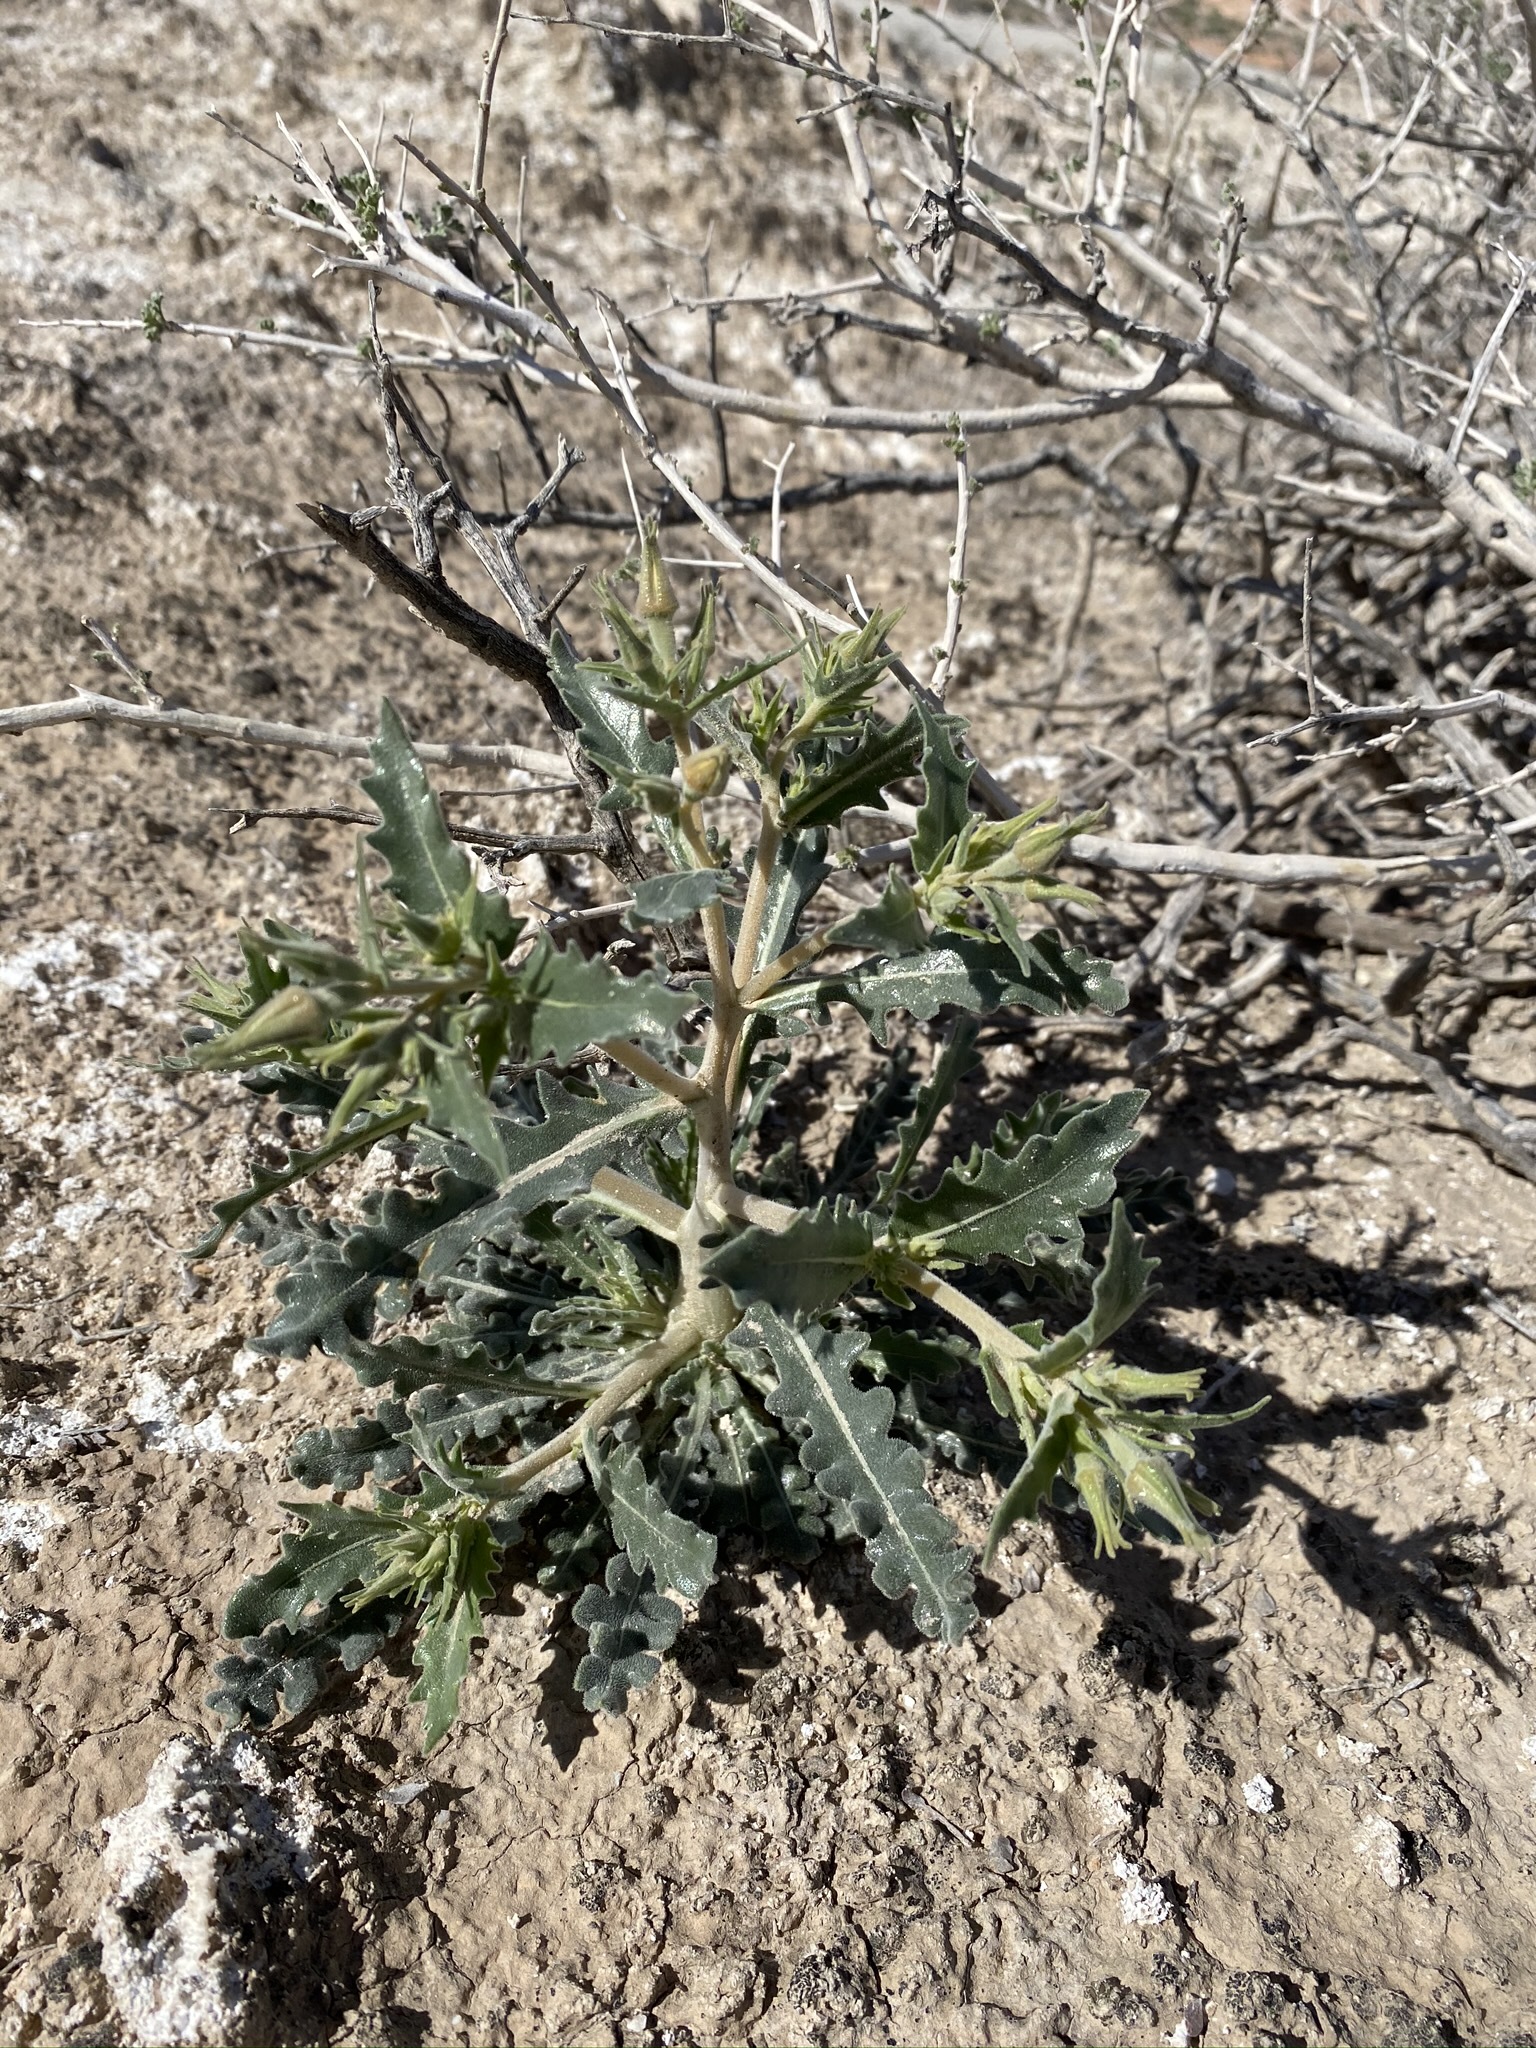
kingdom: Plantae
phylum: Tracheophyta
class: Magnoliopsida
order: Cornales
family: Loasaceae
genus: Mentzelia
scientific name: Mentzelia tricuspis
